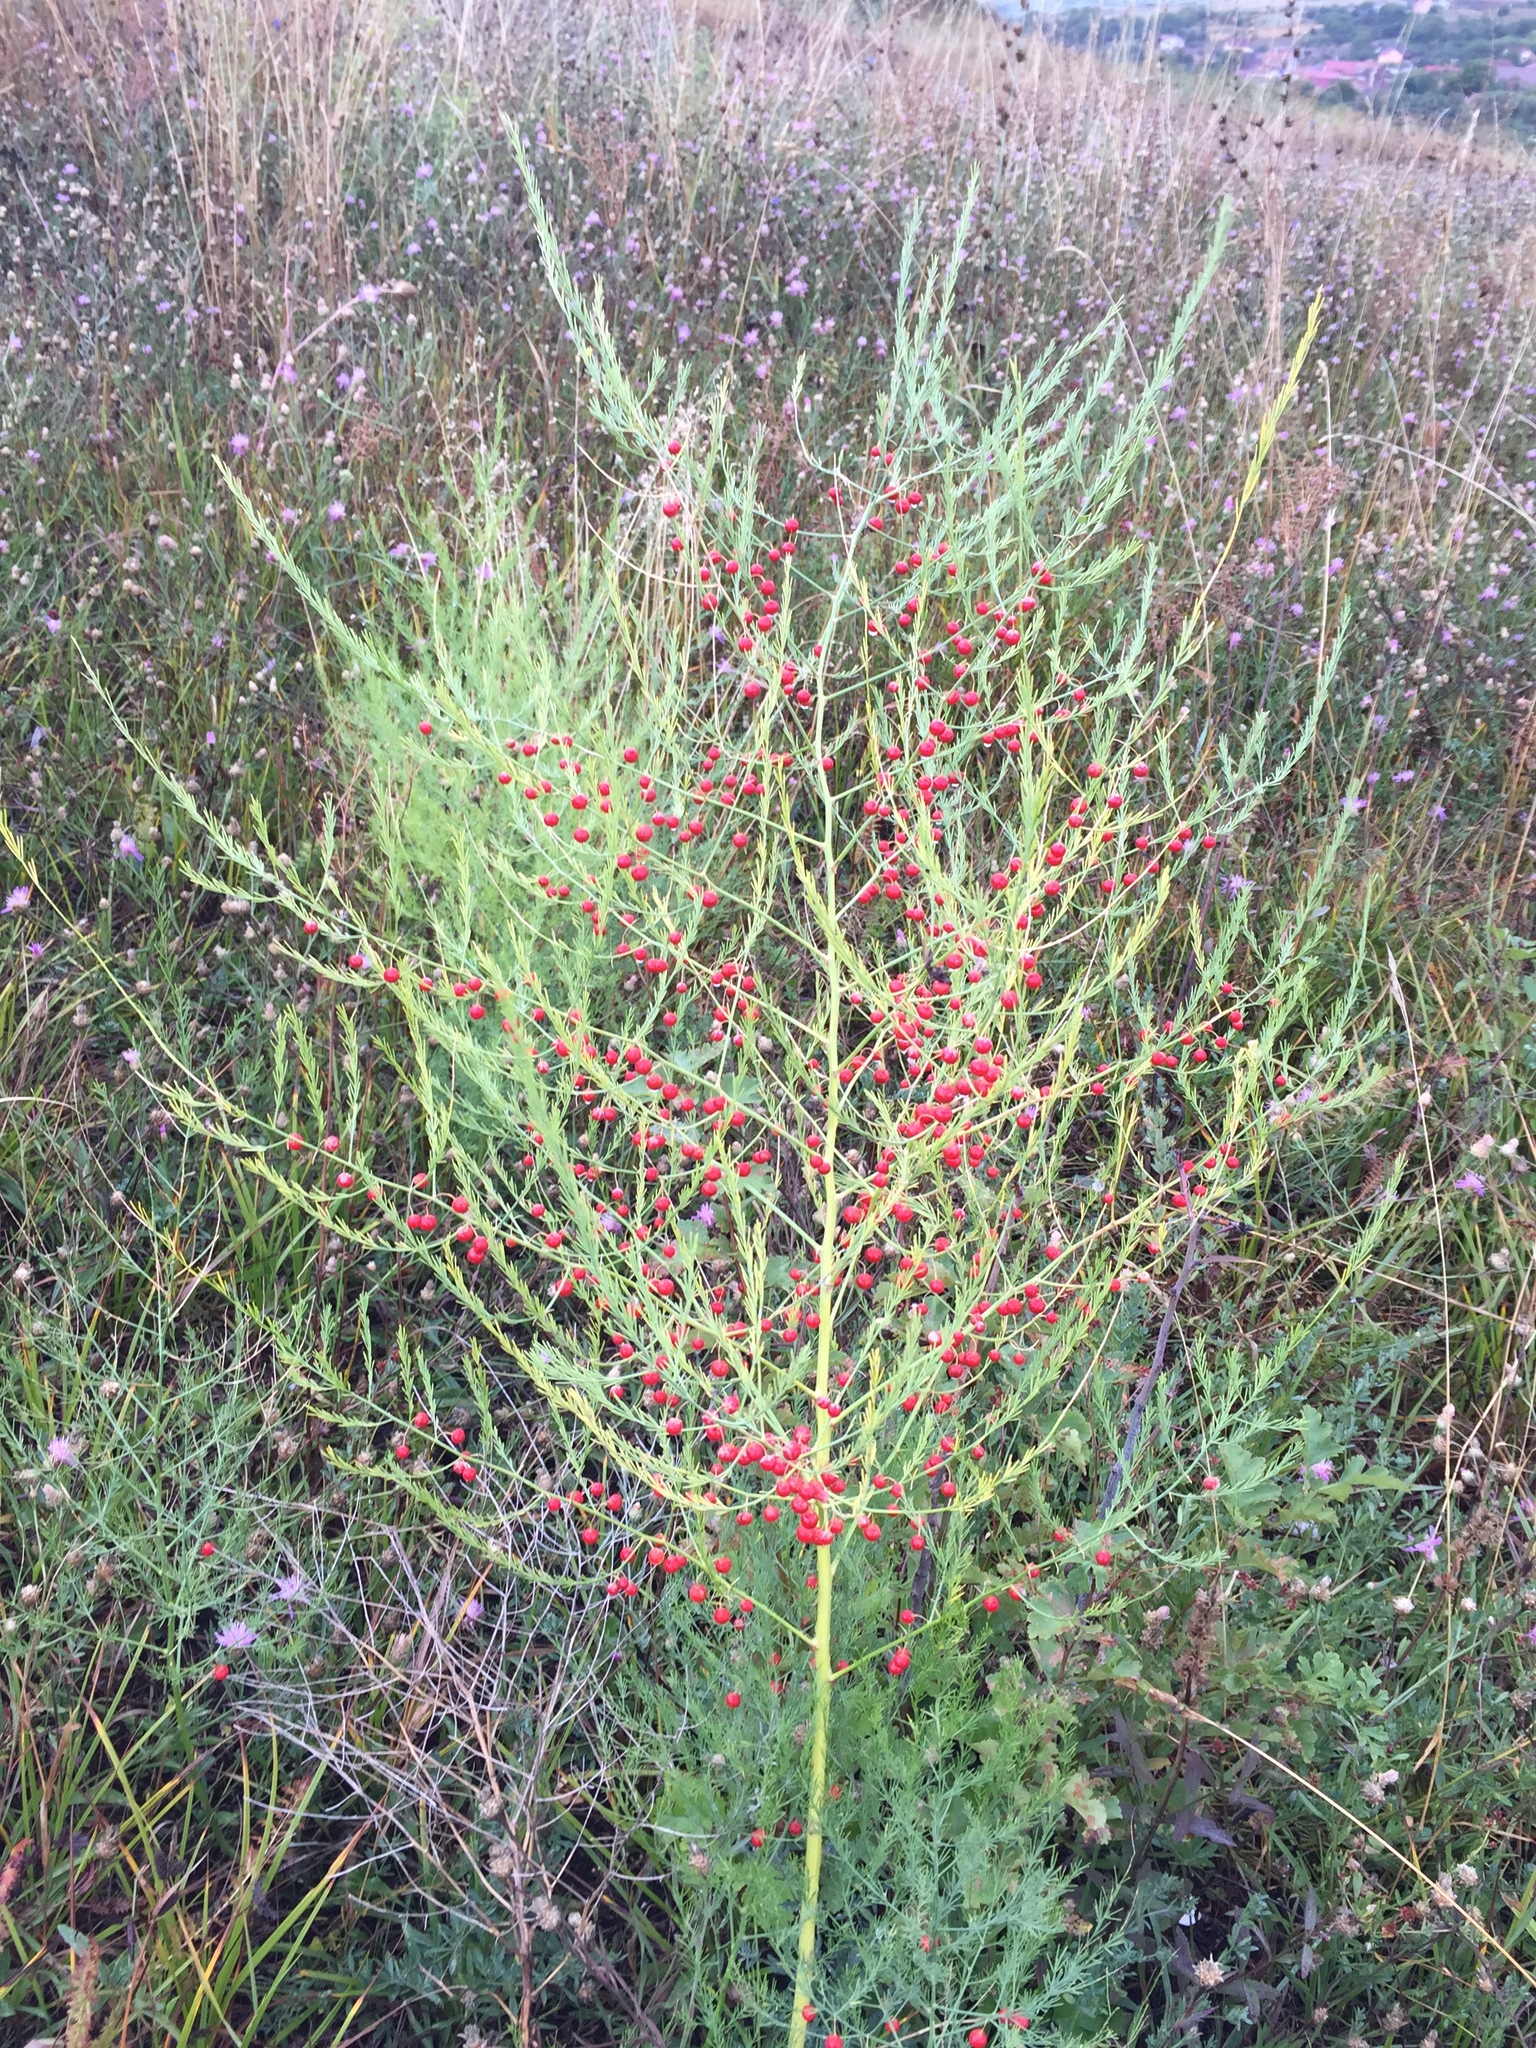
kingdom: Plantae
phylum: Tracheophyta
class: Liliopsida
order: Asparagales
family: Asparagaceae
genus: Asparagus
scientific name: Asparagus officinalis
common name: Garden asparagus
